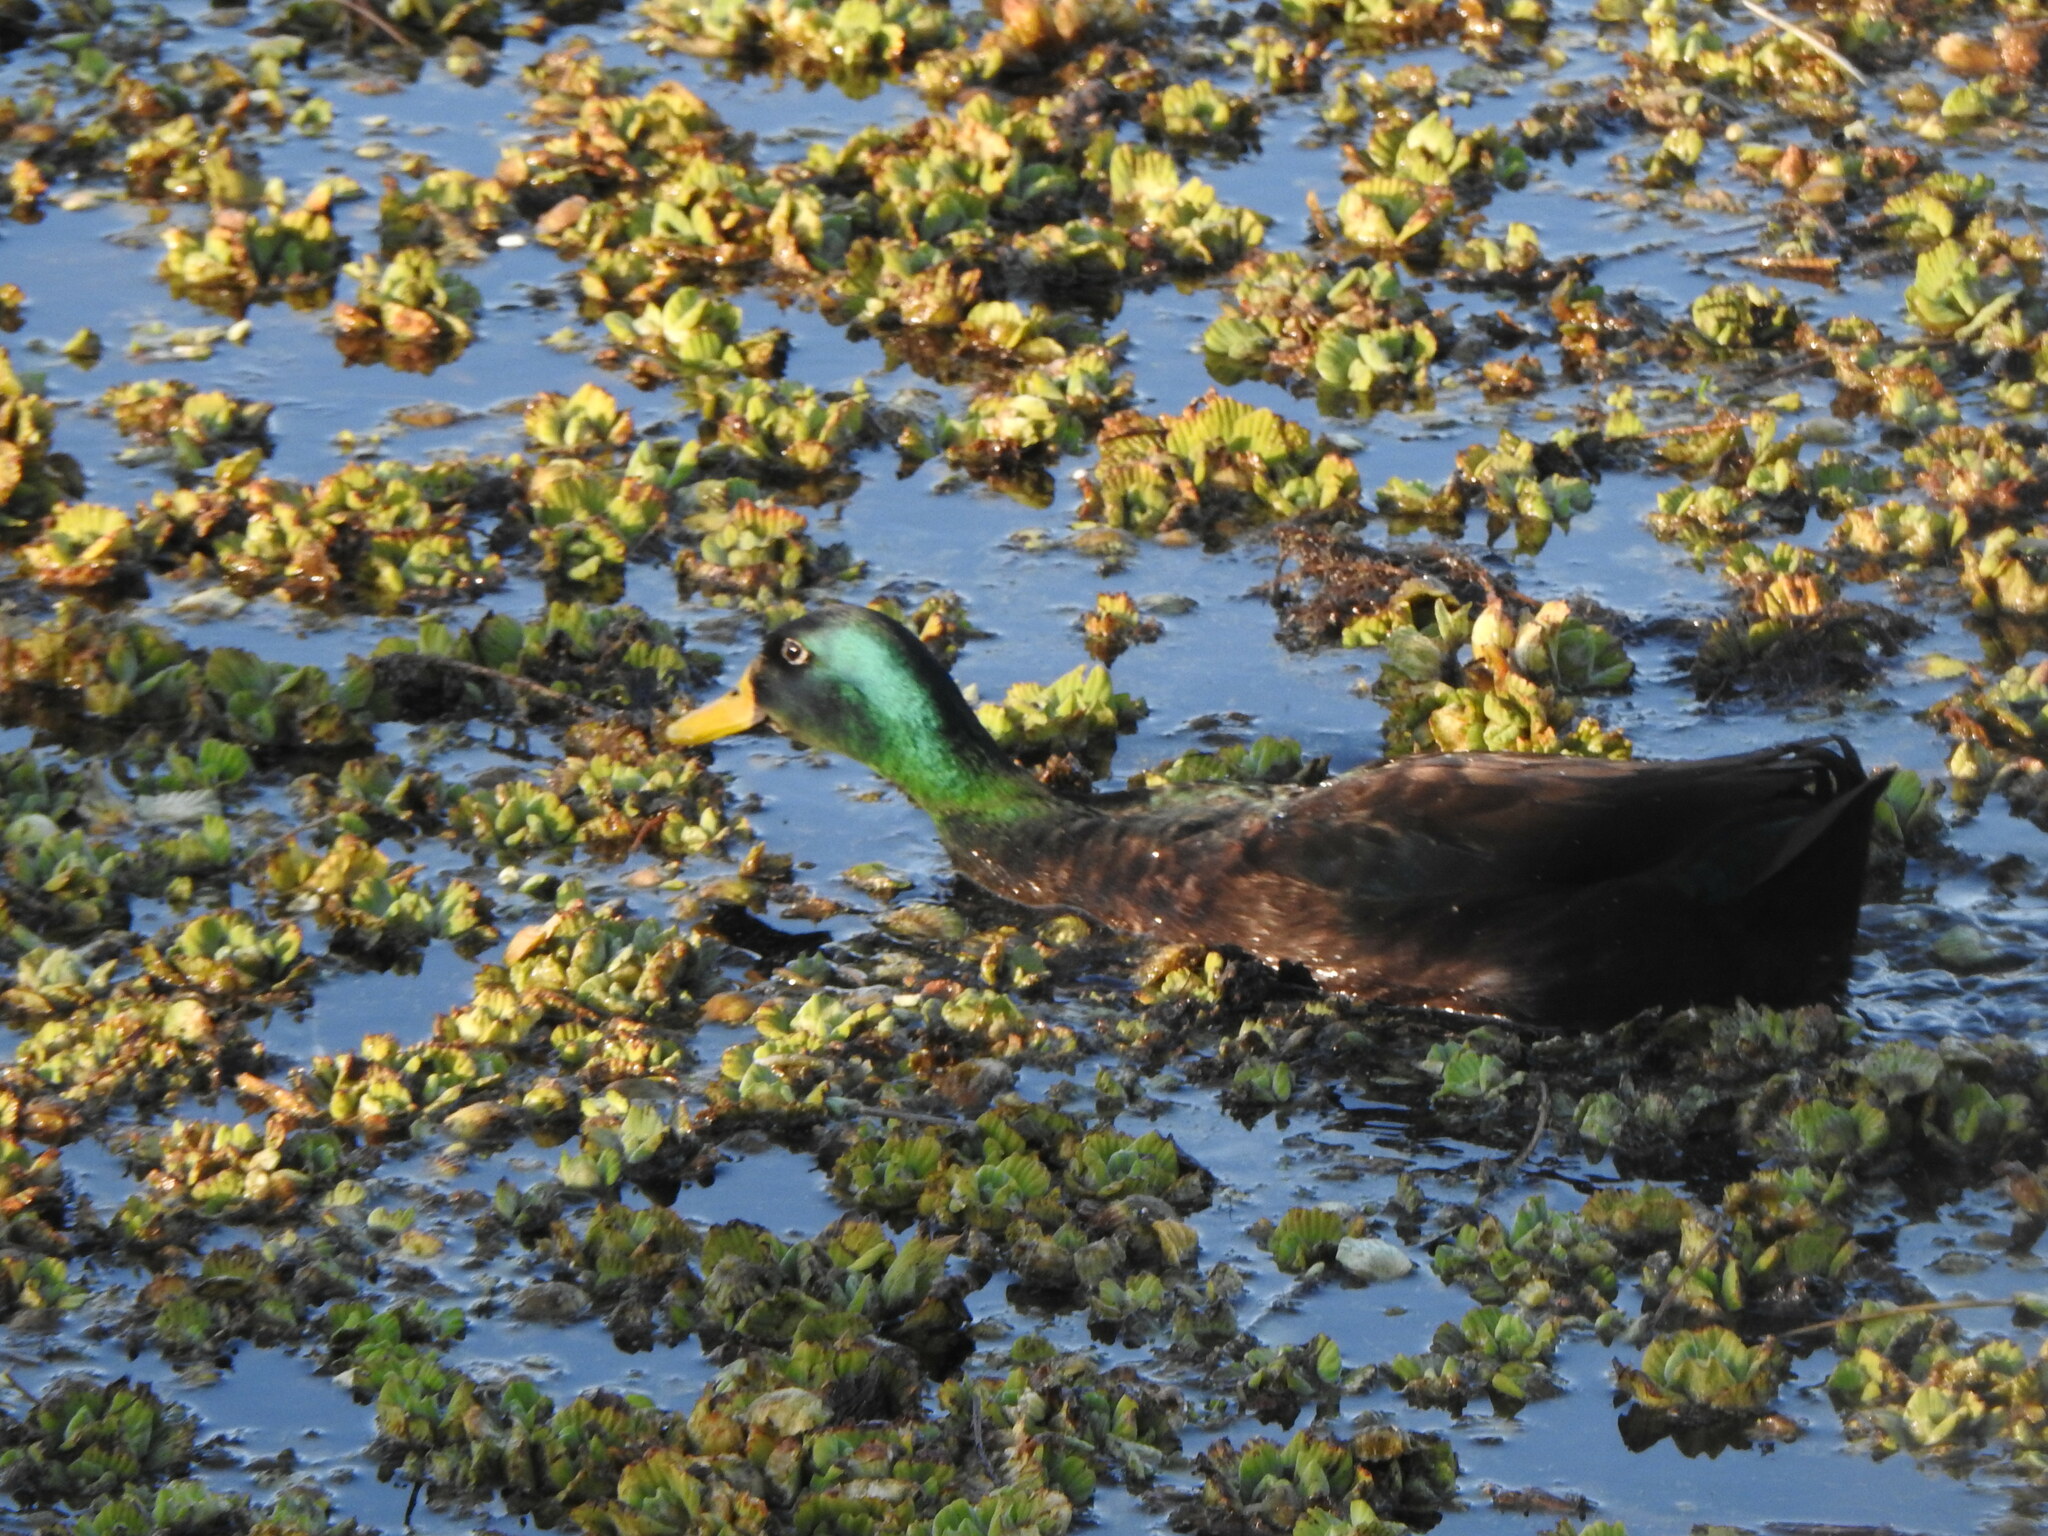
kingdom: Animalia
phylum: Chordata
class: Aves
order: Anseriformes
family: Anatidae
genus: Anas
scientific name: Anas platyrhynchos
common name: Mallard
